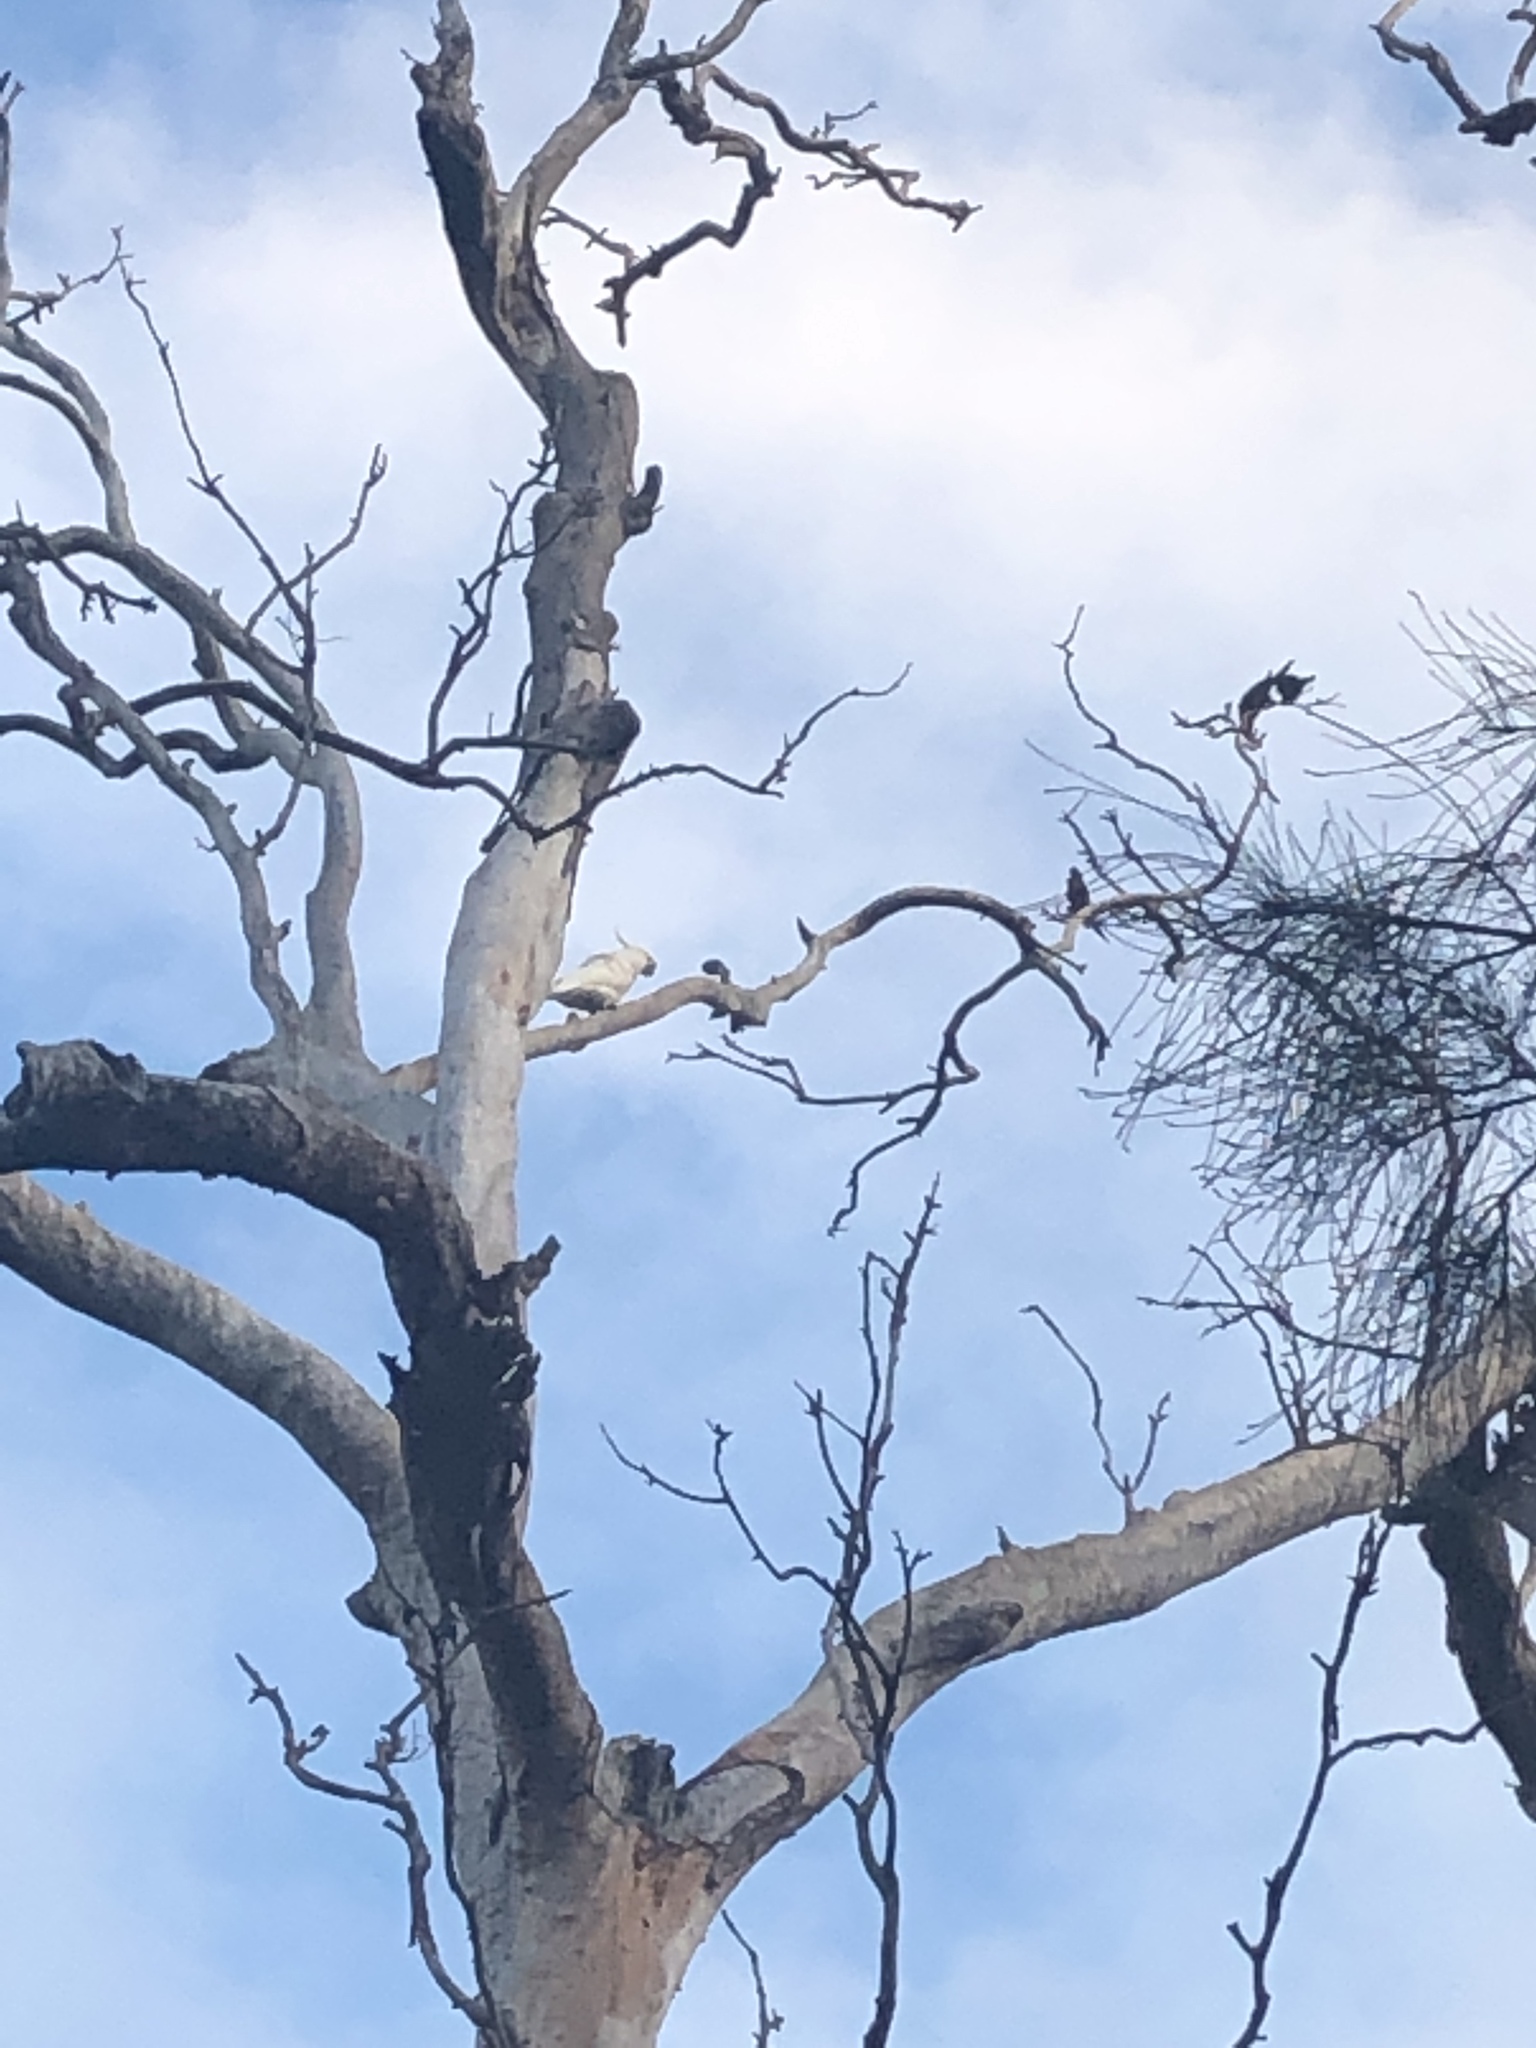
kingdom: Animalia
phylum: Chordata
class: Aves
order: Psittaciformes
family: Psittacidae
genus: Cacatua
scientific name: Cacatua galerita
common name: Sulphur-crested cockatoo
